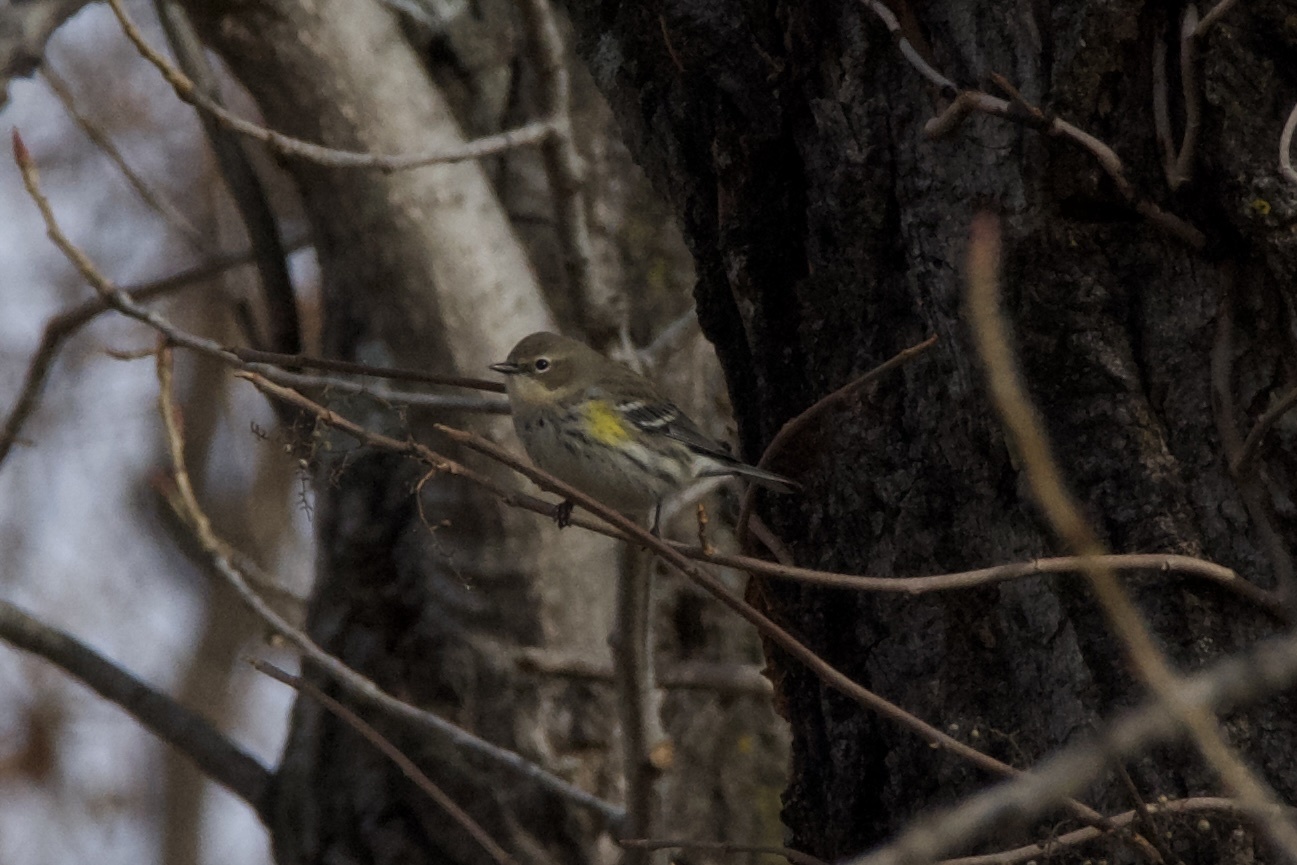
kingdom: Animalia
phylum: Chordata
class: Aves
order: Passeriformes
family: Parulidae
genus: Setophaga
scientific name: Setophaga coronata
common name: Myrtle warbler
